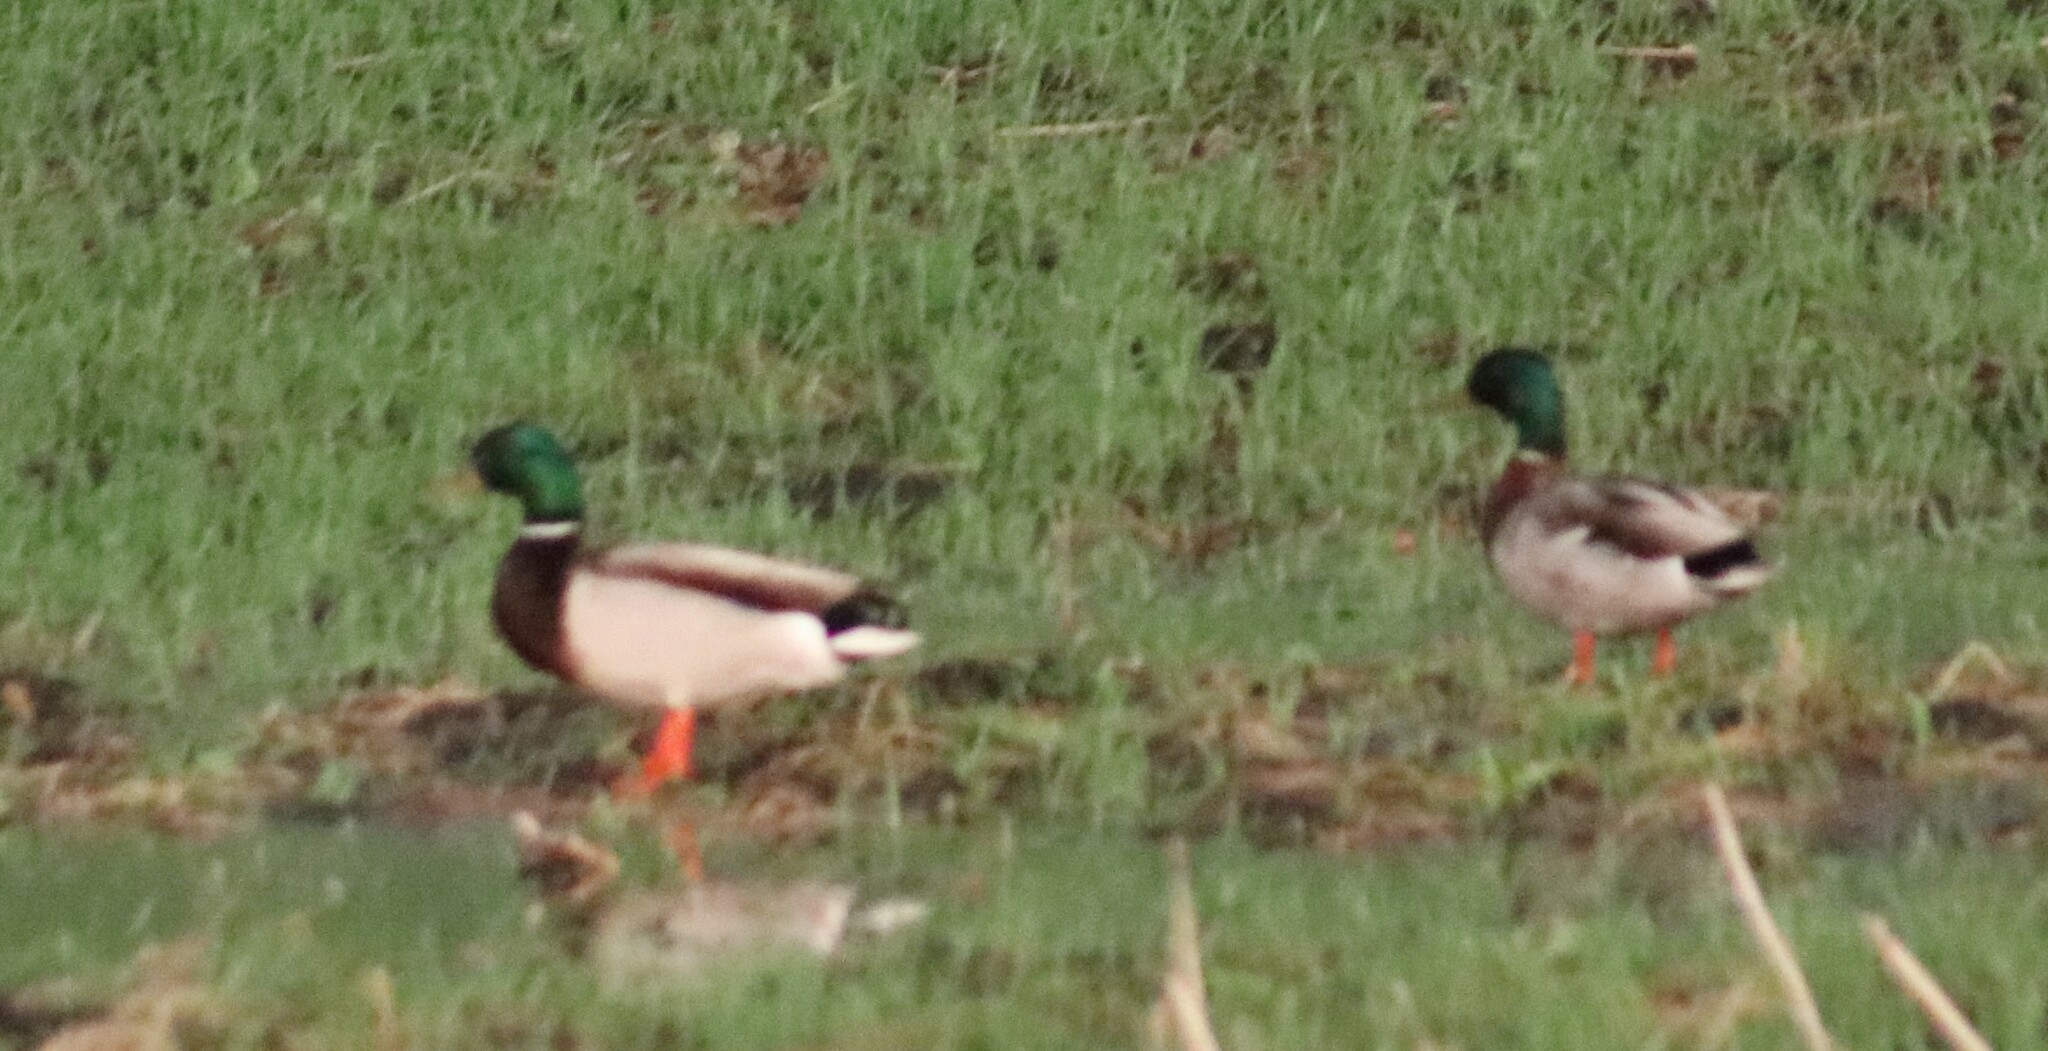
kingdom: Animalia
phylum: Chordata
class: Aves
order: Anseriformes
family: Anatidae
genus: Anas
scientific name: Anas platyrhynchos
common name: Mallard
